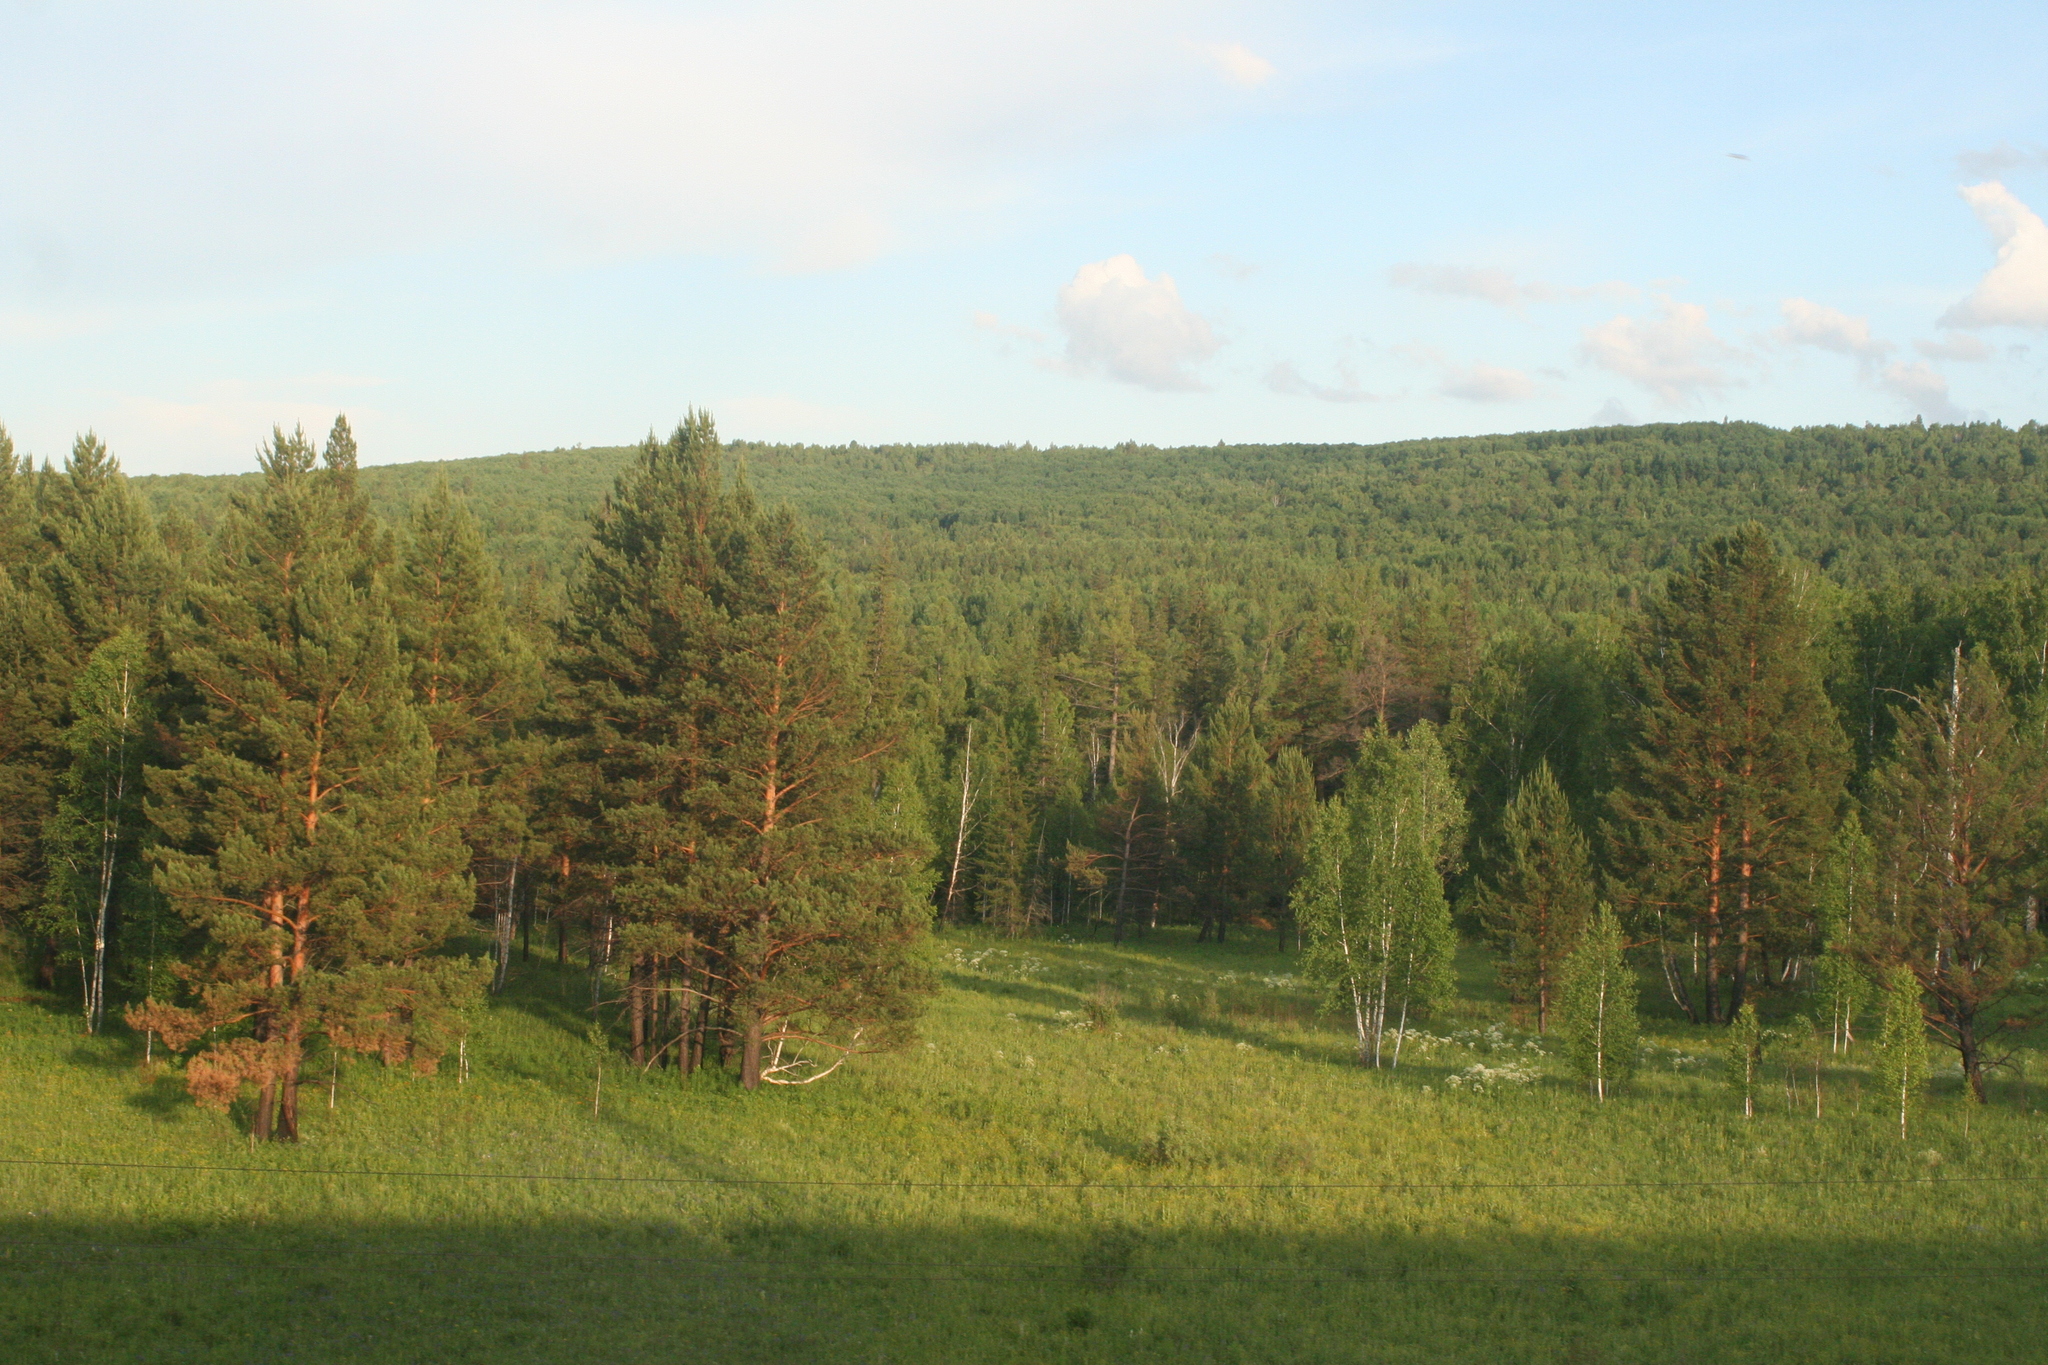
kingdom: Plantae
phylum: Tracheophyta
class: Pinopsida
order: Pinales
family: Pinaceae
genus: Pinus
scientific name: Pinus sylvestris
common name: Scots pine
